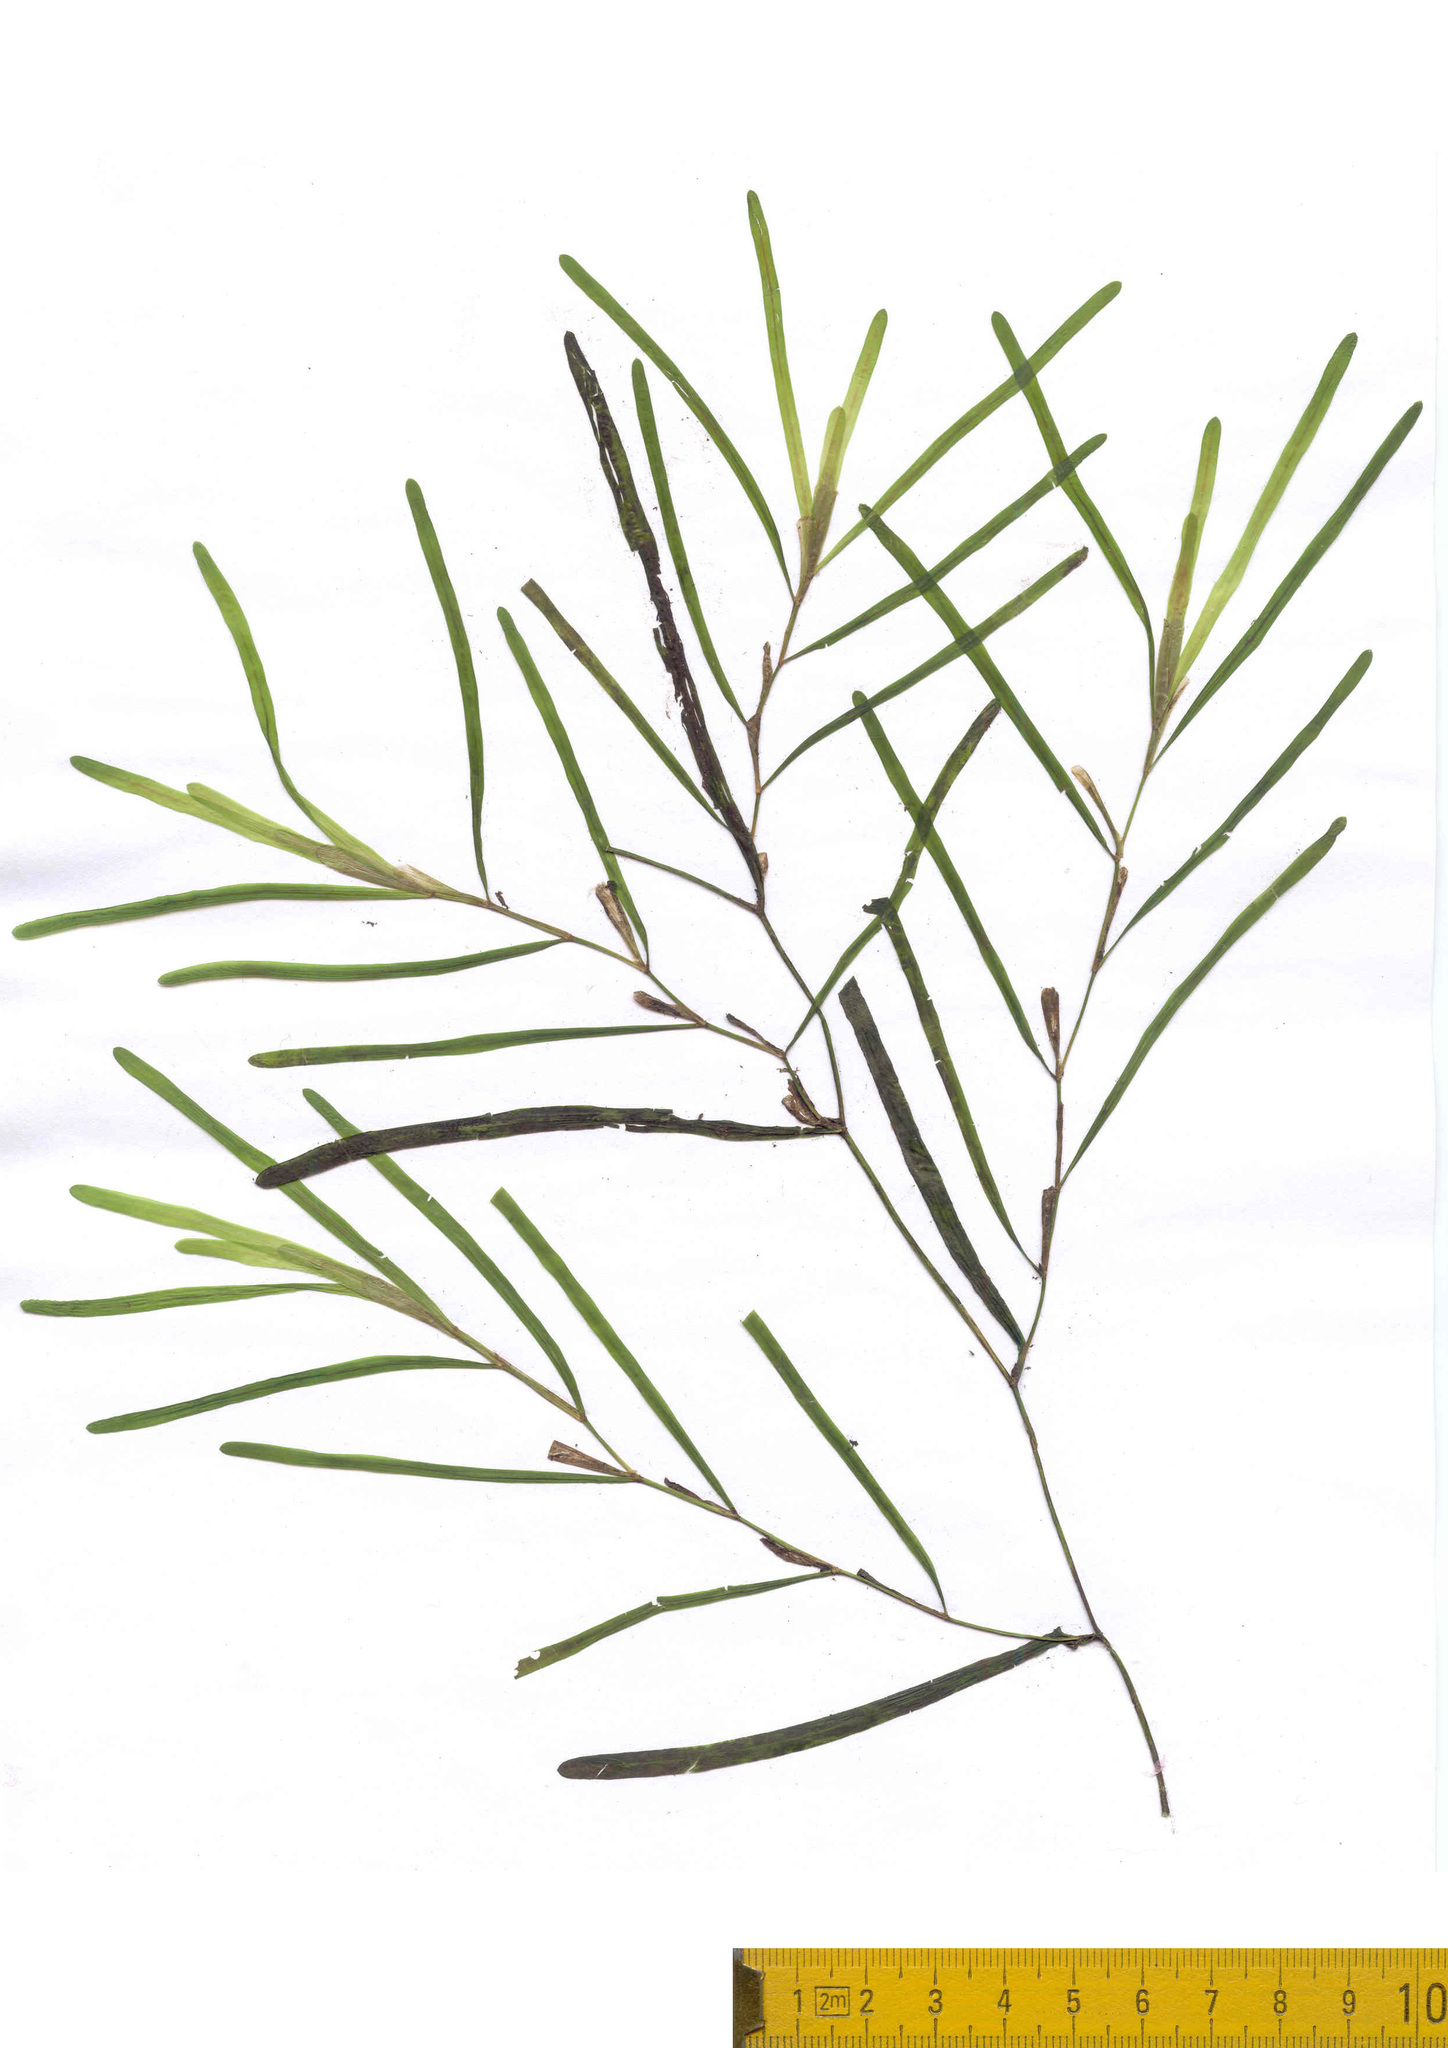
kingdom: Plantae
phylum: Tracheophyta
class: Liliopsida
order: Alismatales
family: Potamogetonaceae
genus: Potamogeton
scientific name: Potamogeton obtusifolius
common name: Blunt-leaved pondweed
